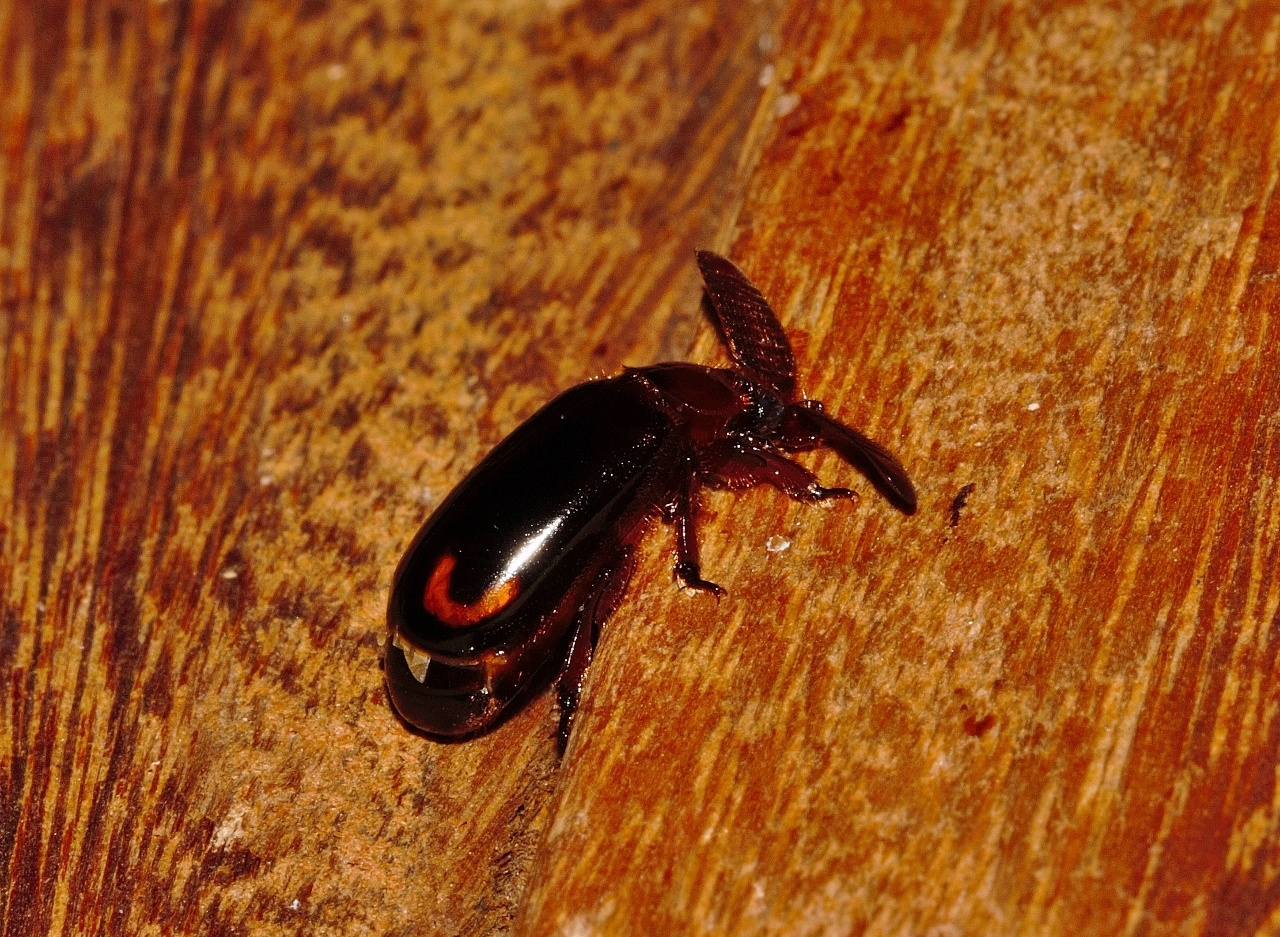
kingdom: Animalia
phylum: Arthropoda
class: Insecta
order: Coleoptera
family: Carabidae
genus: Cerapterus
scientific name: Cerapterus laceratus
